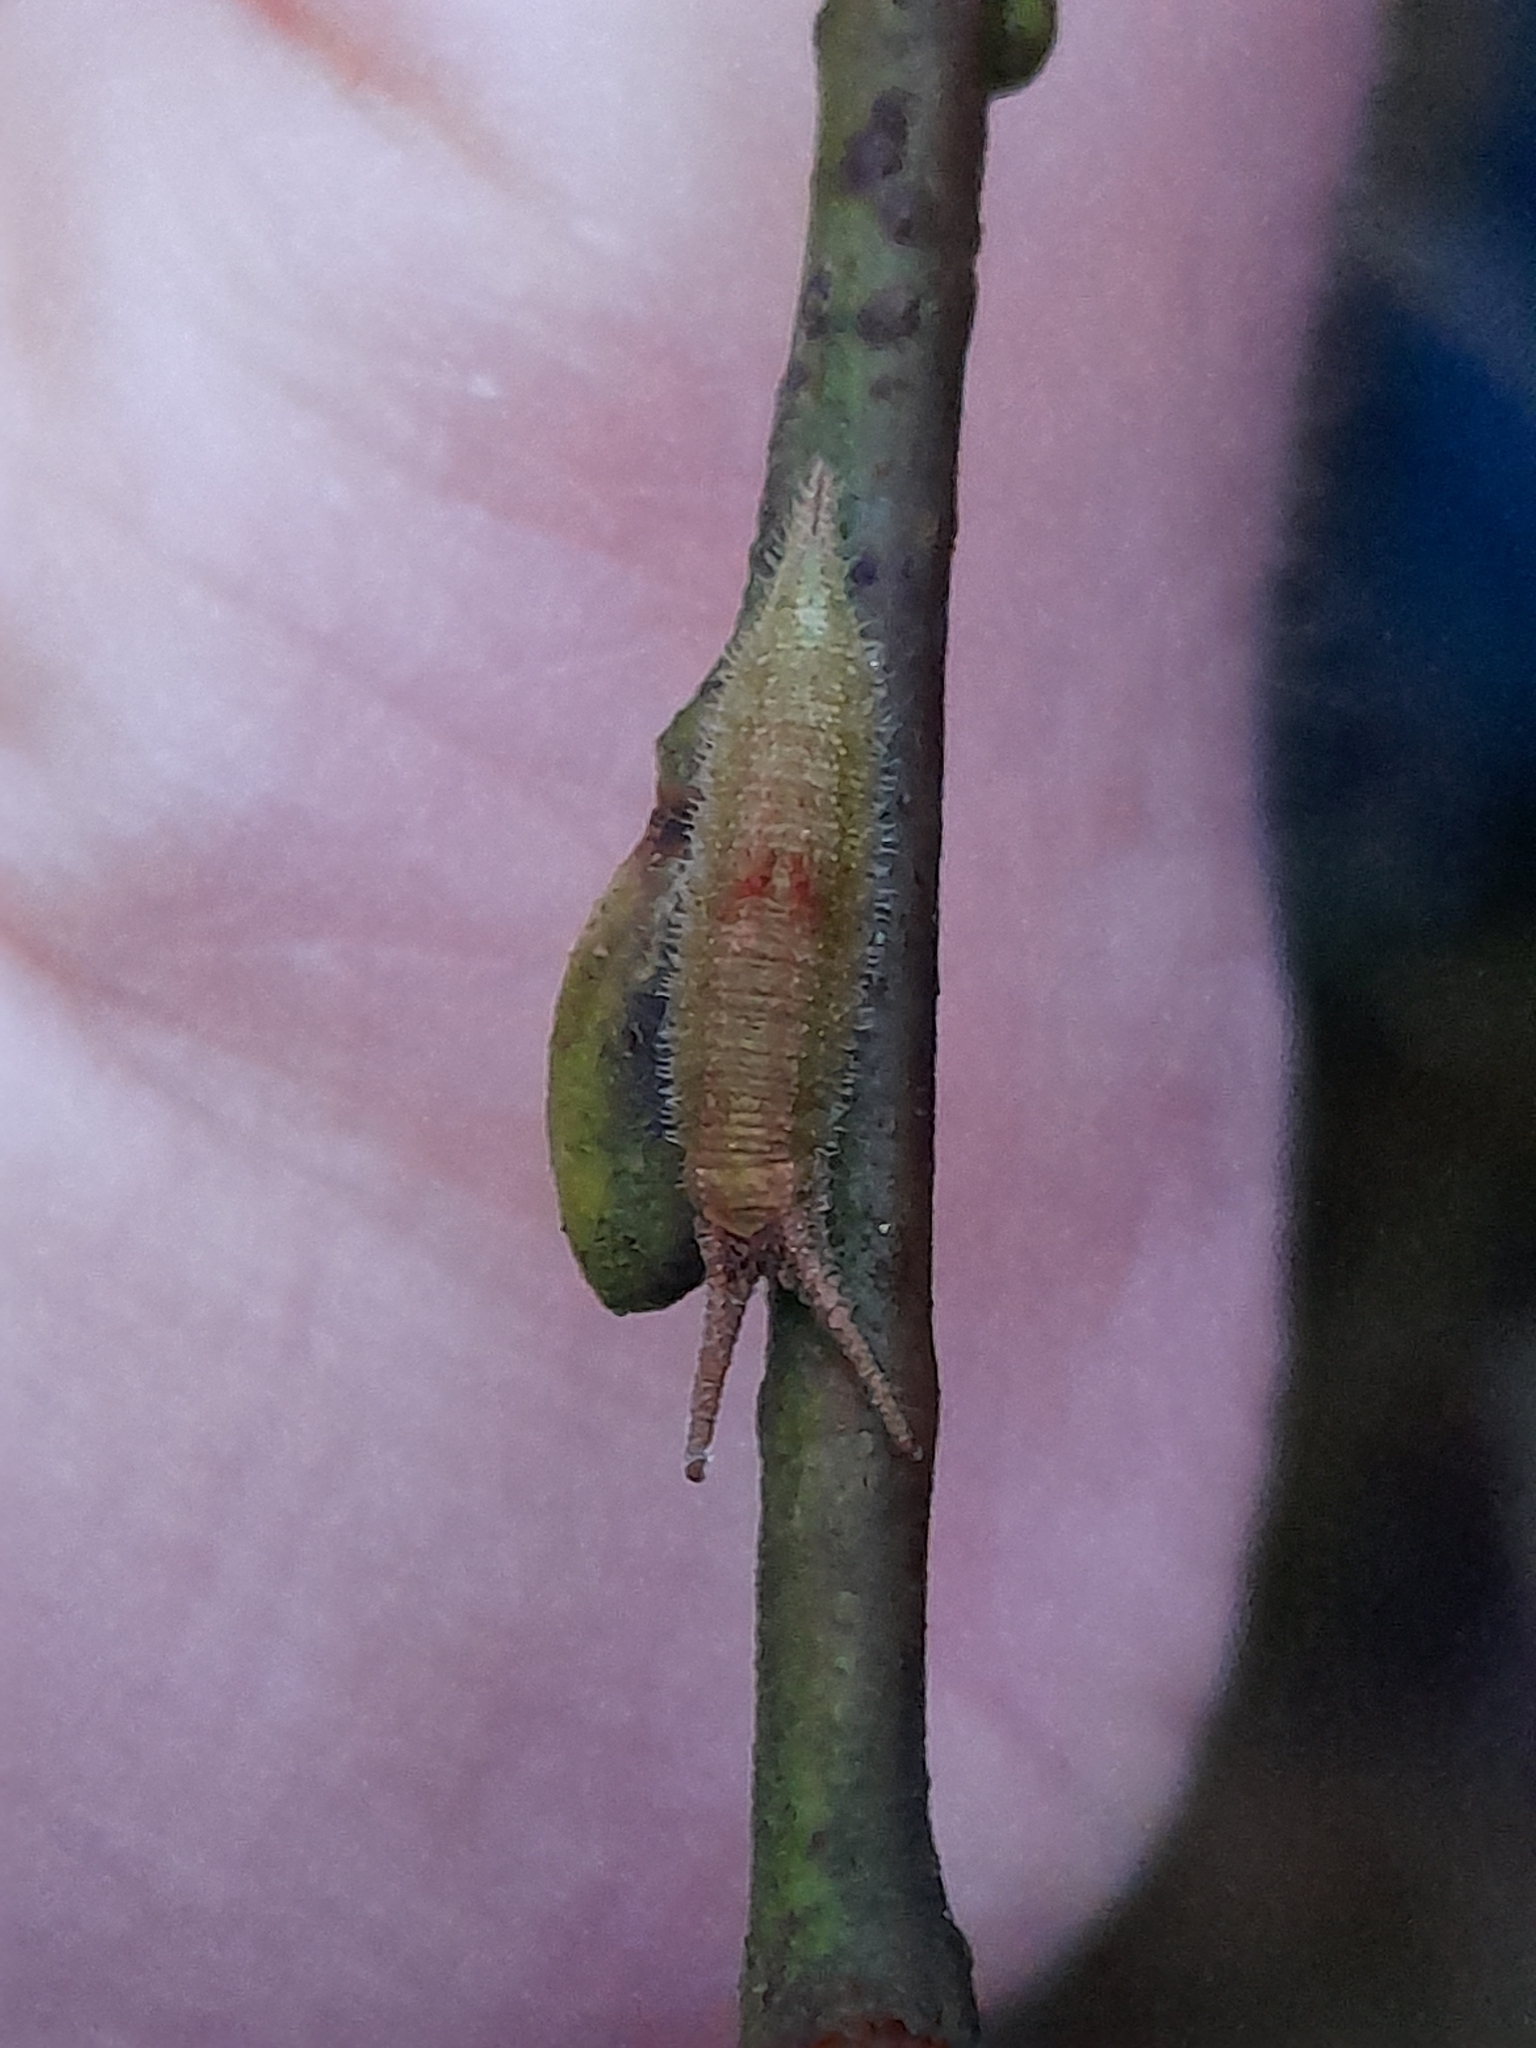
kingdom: Animalia
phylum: Arthropoda
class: Insecta
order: Lepidoptera
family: Nymphalidae
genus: Apatura
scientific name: Apatura iris
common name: Purple emperor
